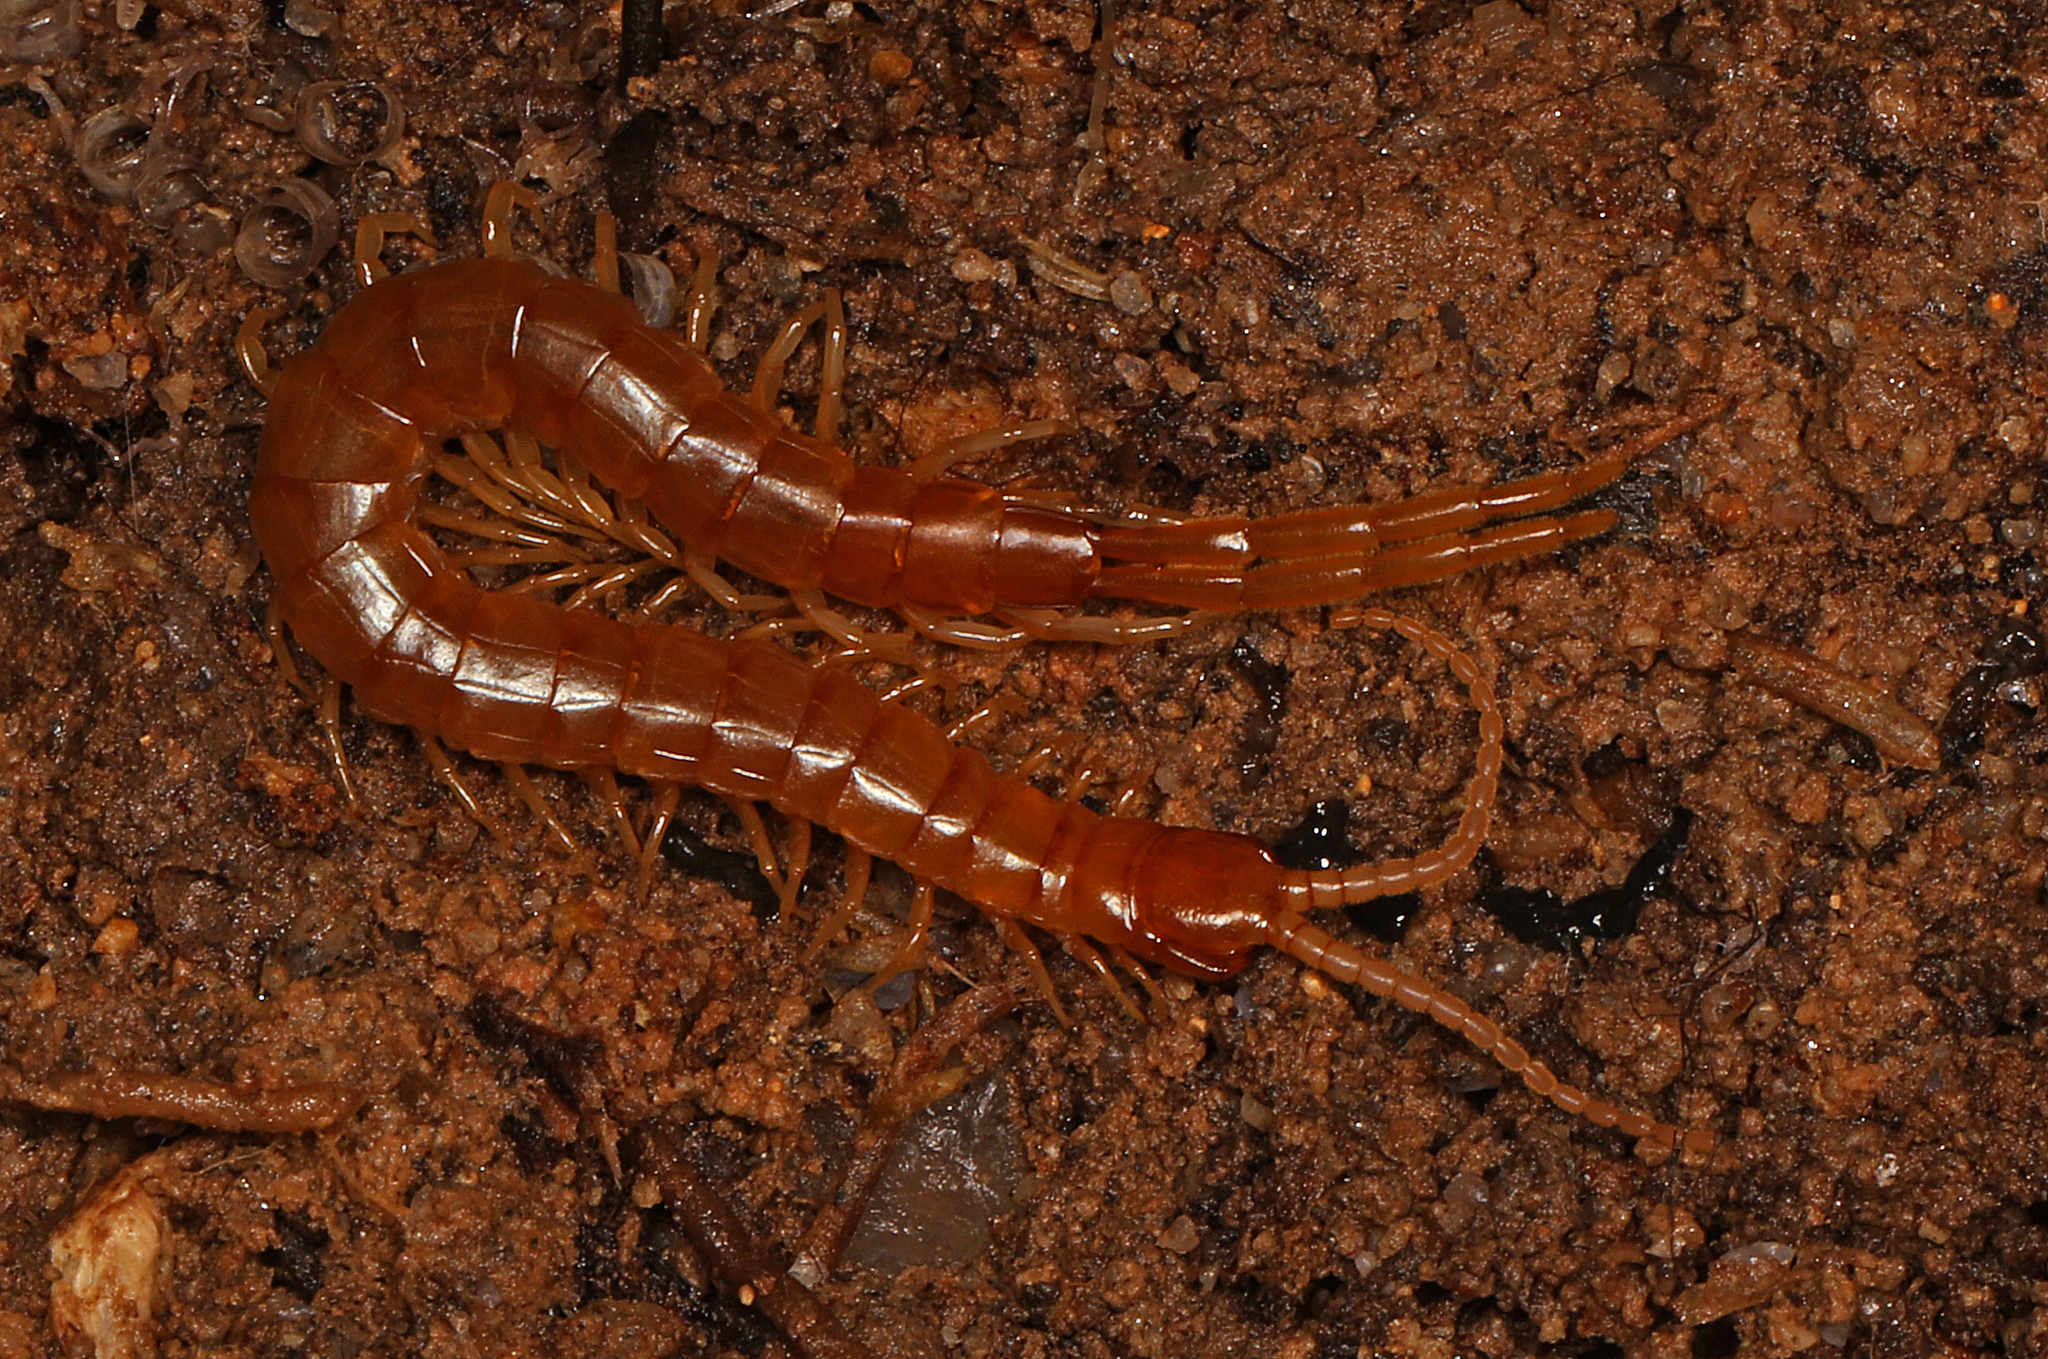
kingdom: Animalia
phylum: Arthropoda
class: Chilopoda
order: Scolopendromorpha
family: Scolopocryptopidae
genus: Scolopocryptops
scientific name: Scolopocryptops peregrinator
